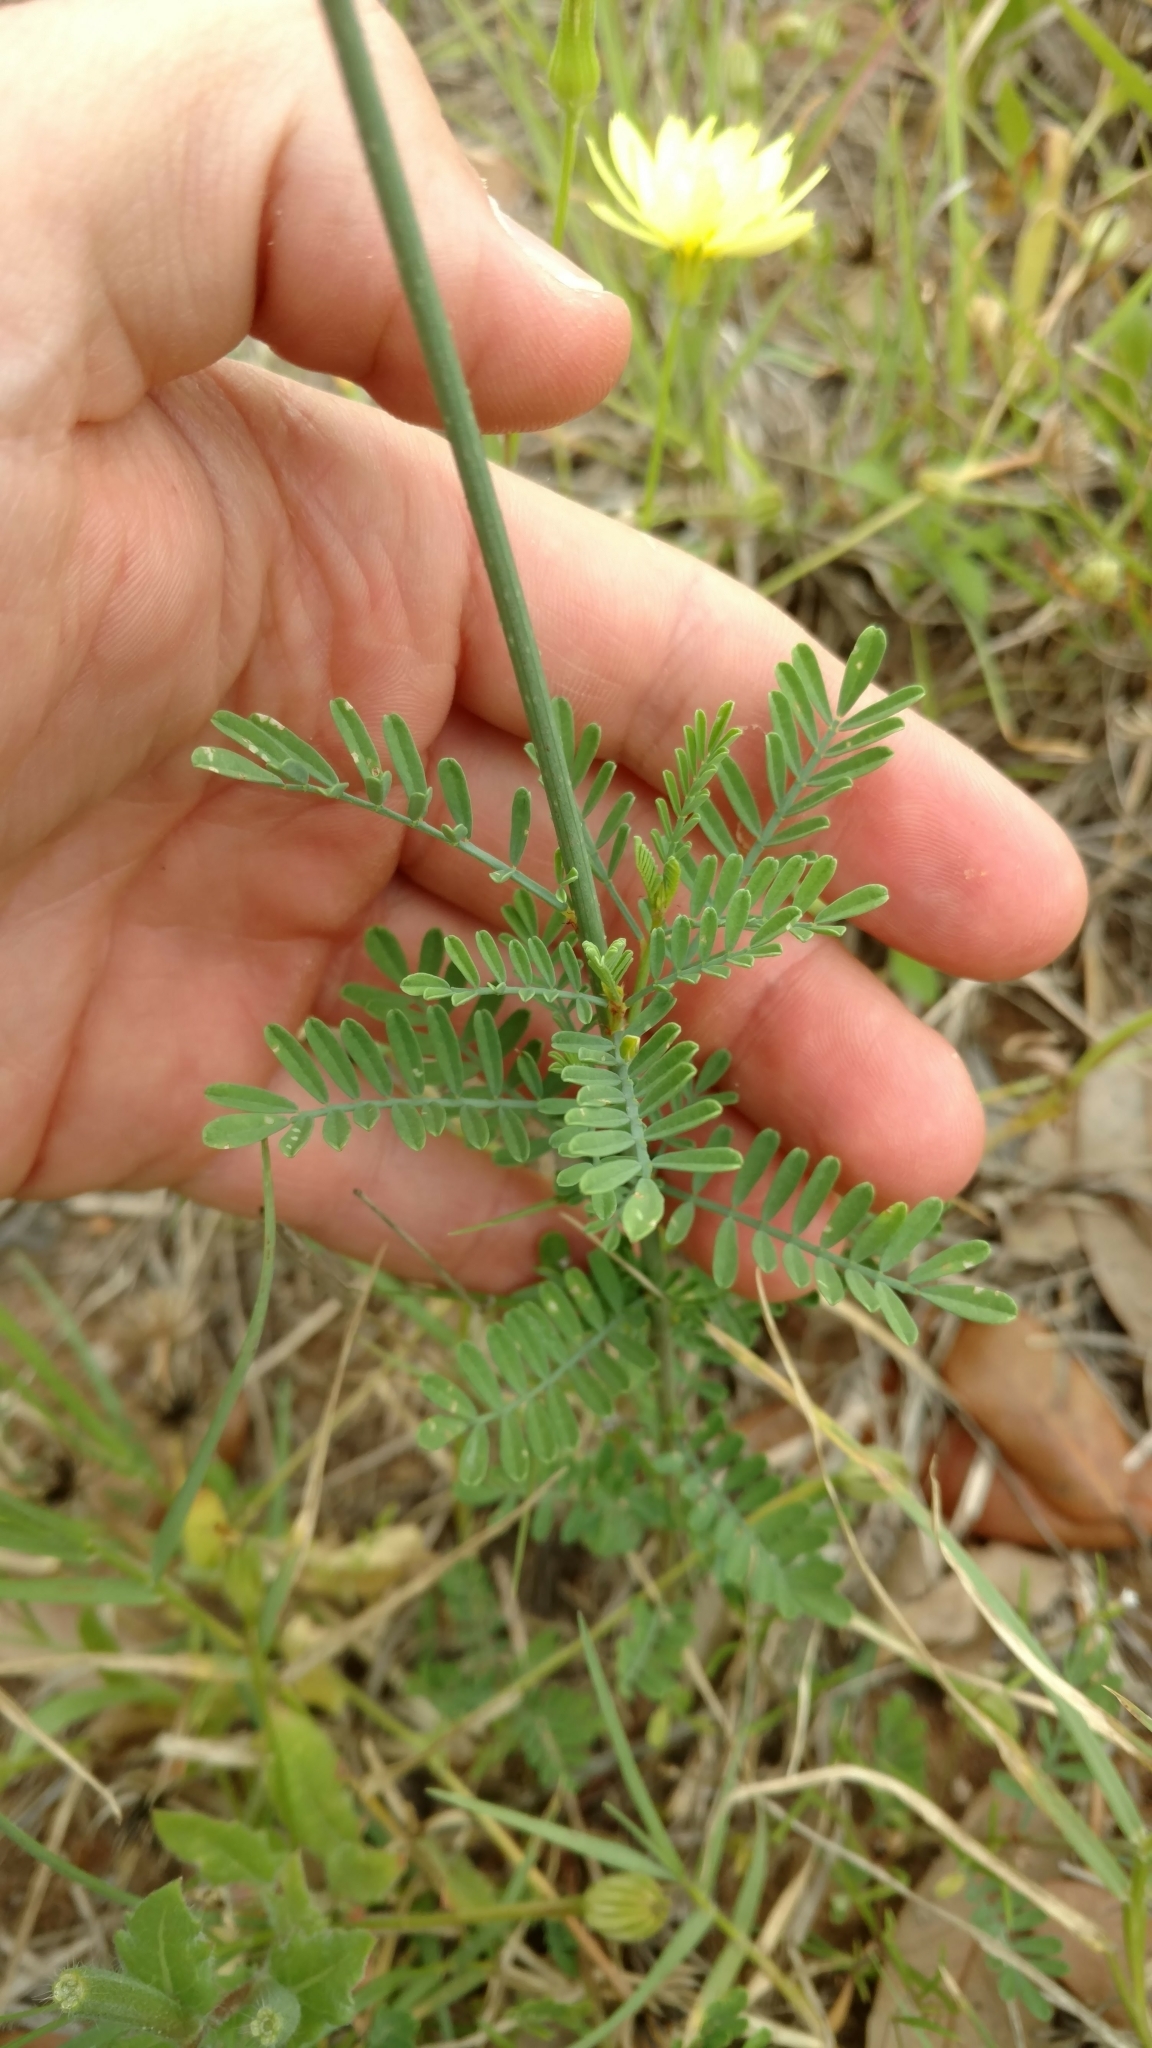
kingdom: Plantae
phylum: Tracheophyta
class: Magnoliopsida
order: Fabales
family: Fabaceae
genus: Dalea
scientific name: Dalea emarginata
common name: Wedgeleaf prairie clover
